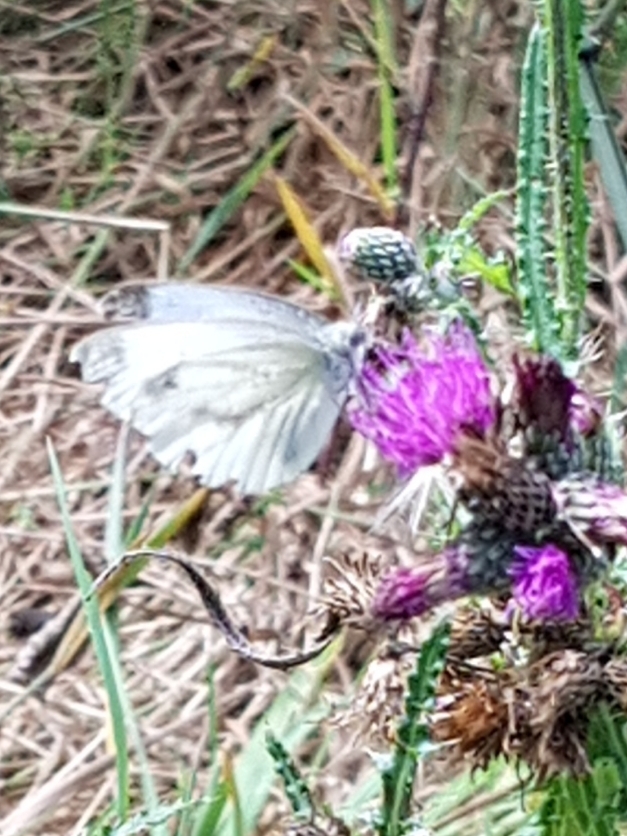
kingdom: Animalia
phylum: Arthropoda
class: Insecta
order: Lepidoptera
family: Pieridae
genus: Pieris
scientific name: Pieris napi
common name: Green-veined white
